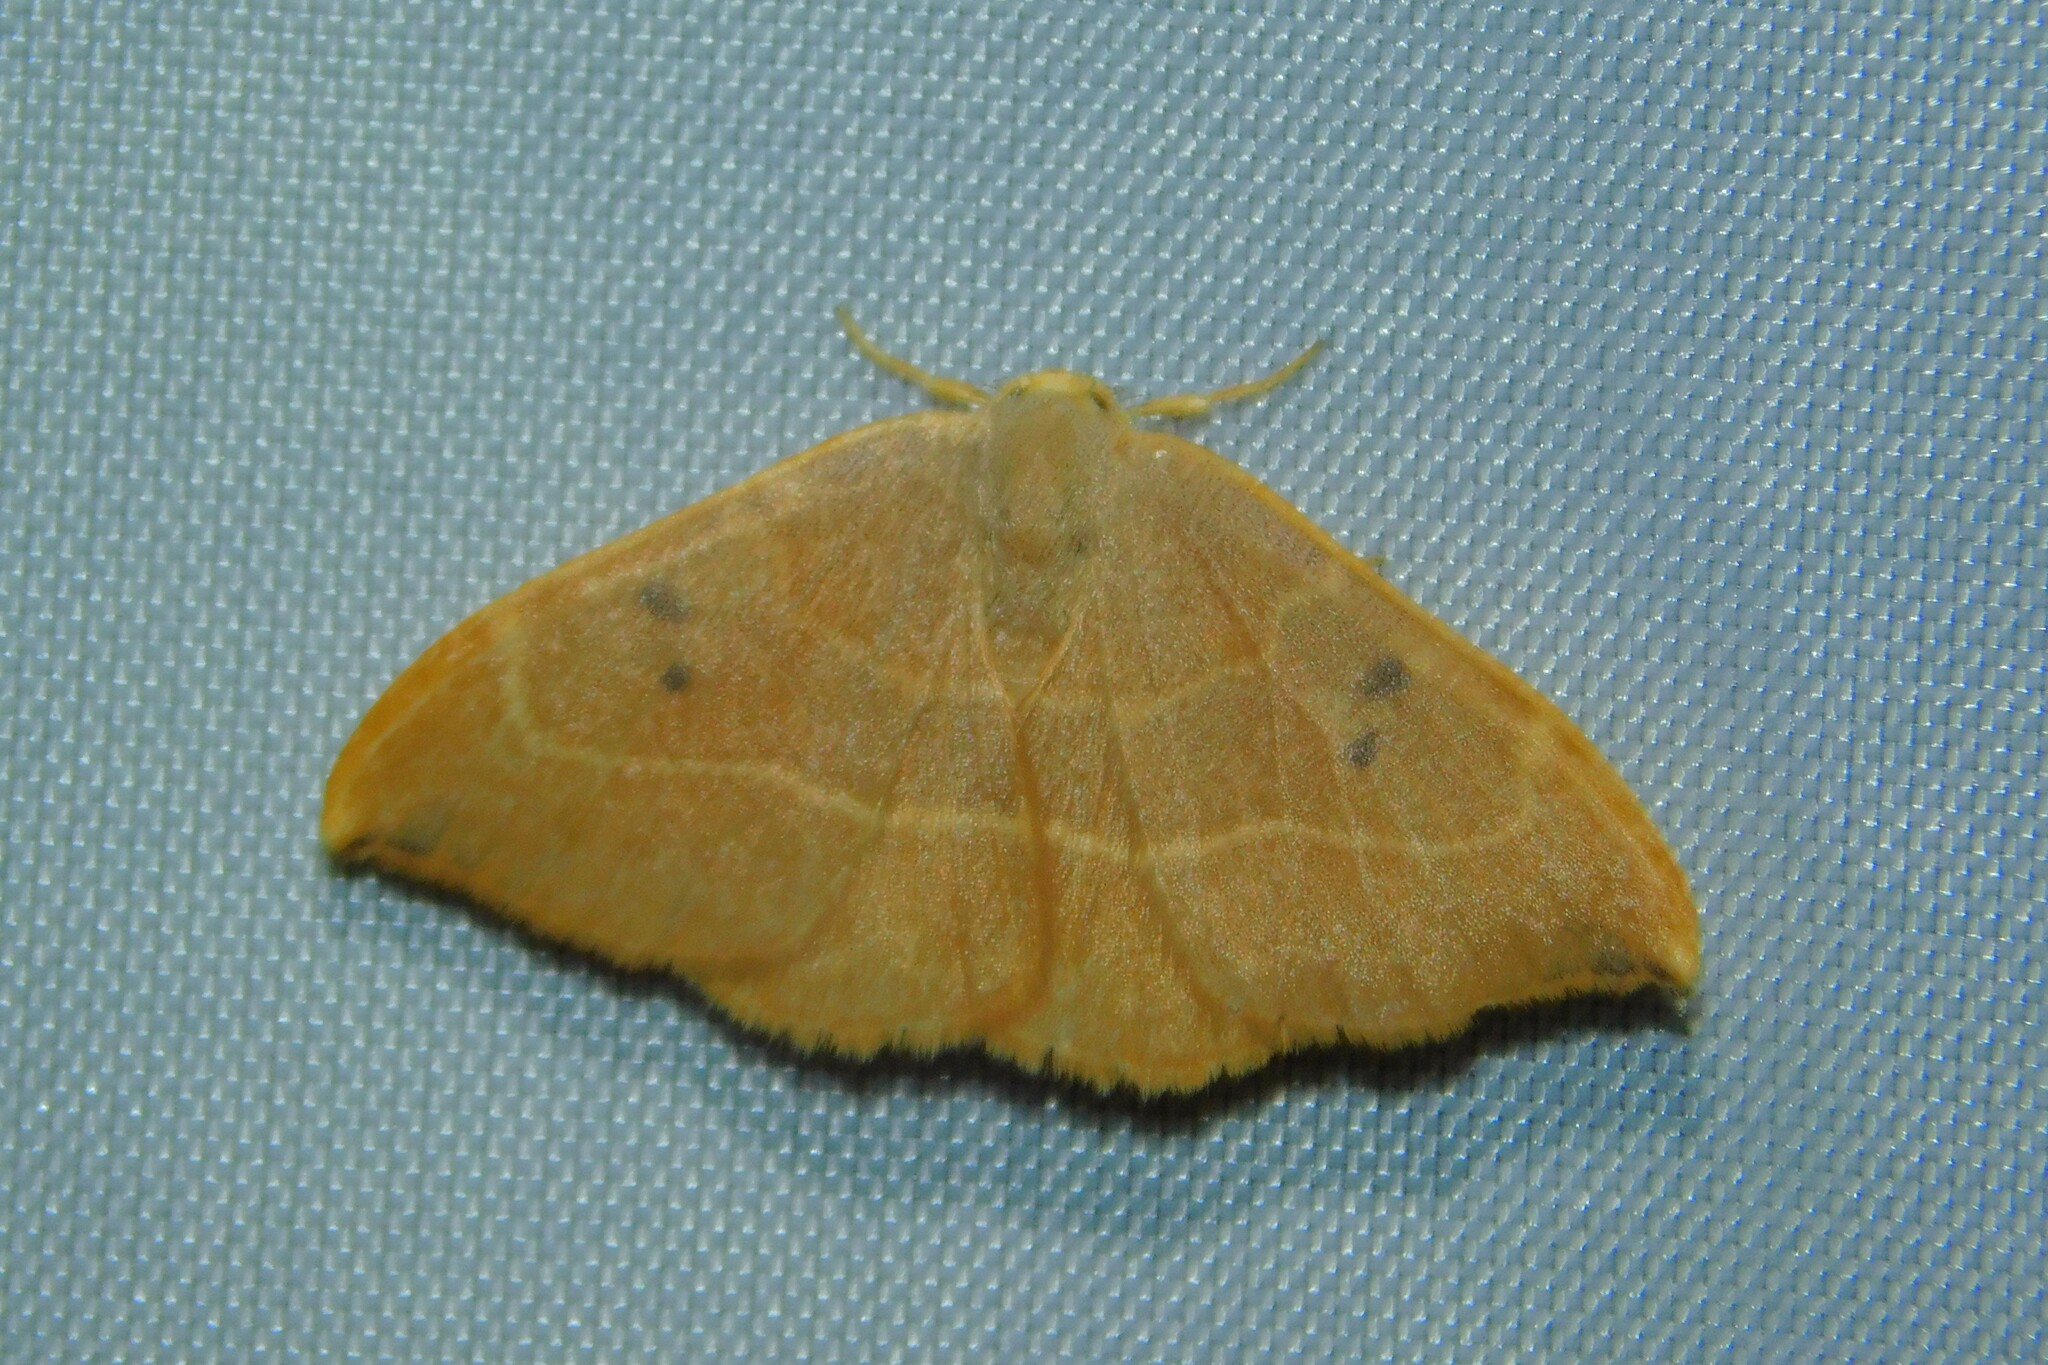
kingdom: Animalia
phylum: Arthropoda
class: Insecta
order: Lepidoptera
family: Drepanidae
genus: Watsonalla
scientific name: Watsonalla binaria
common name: Oak hook-tip
